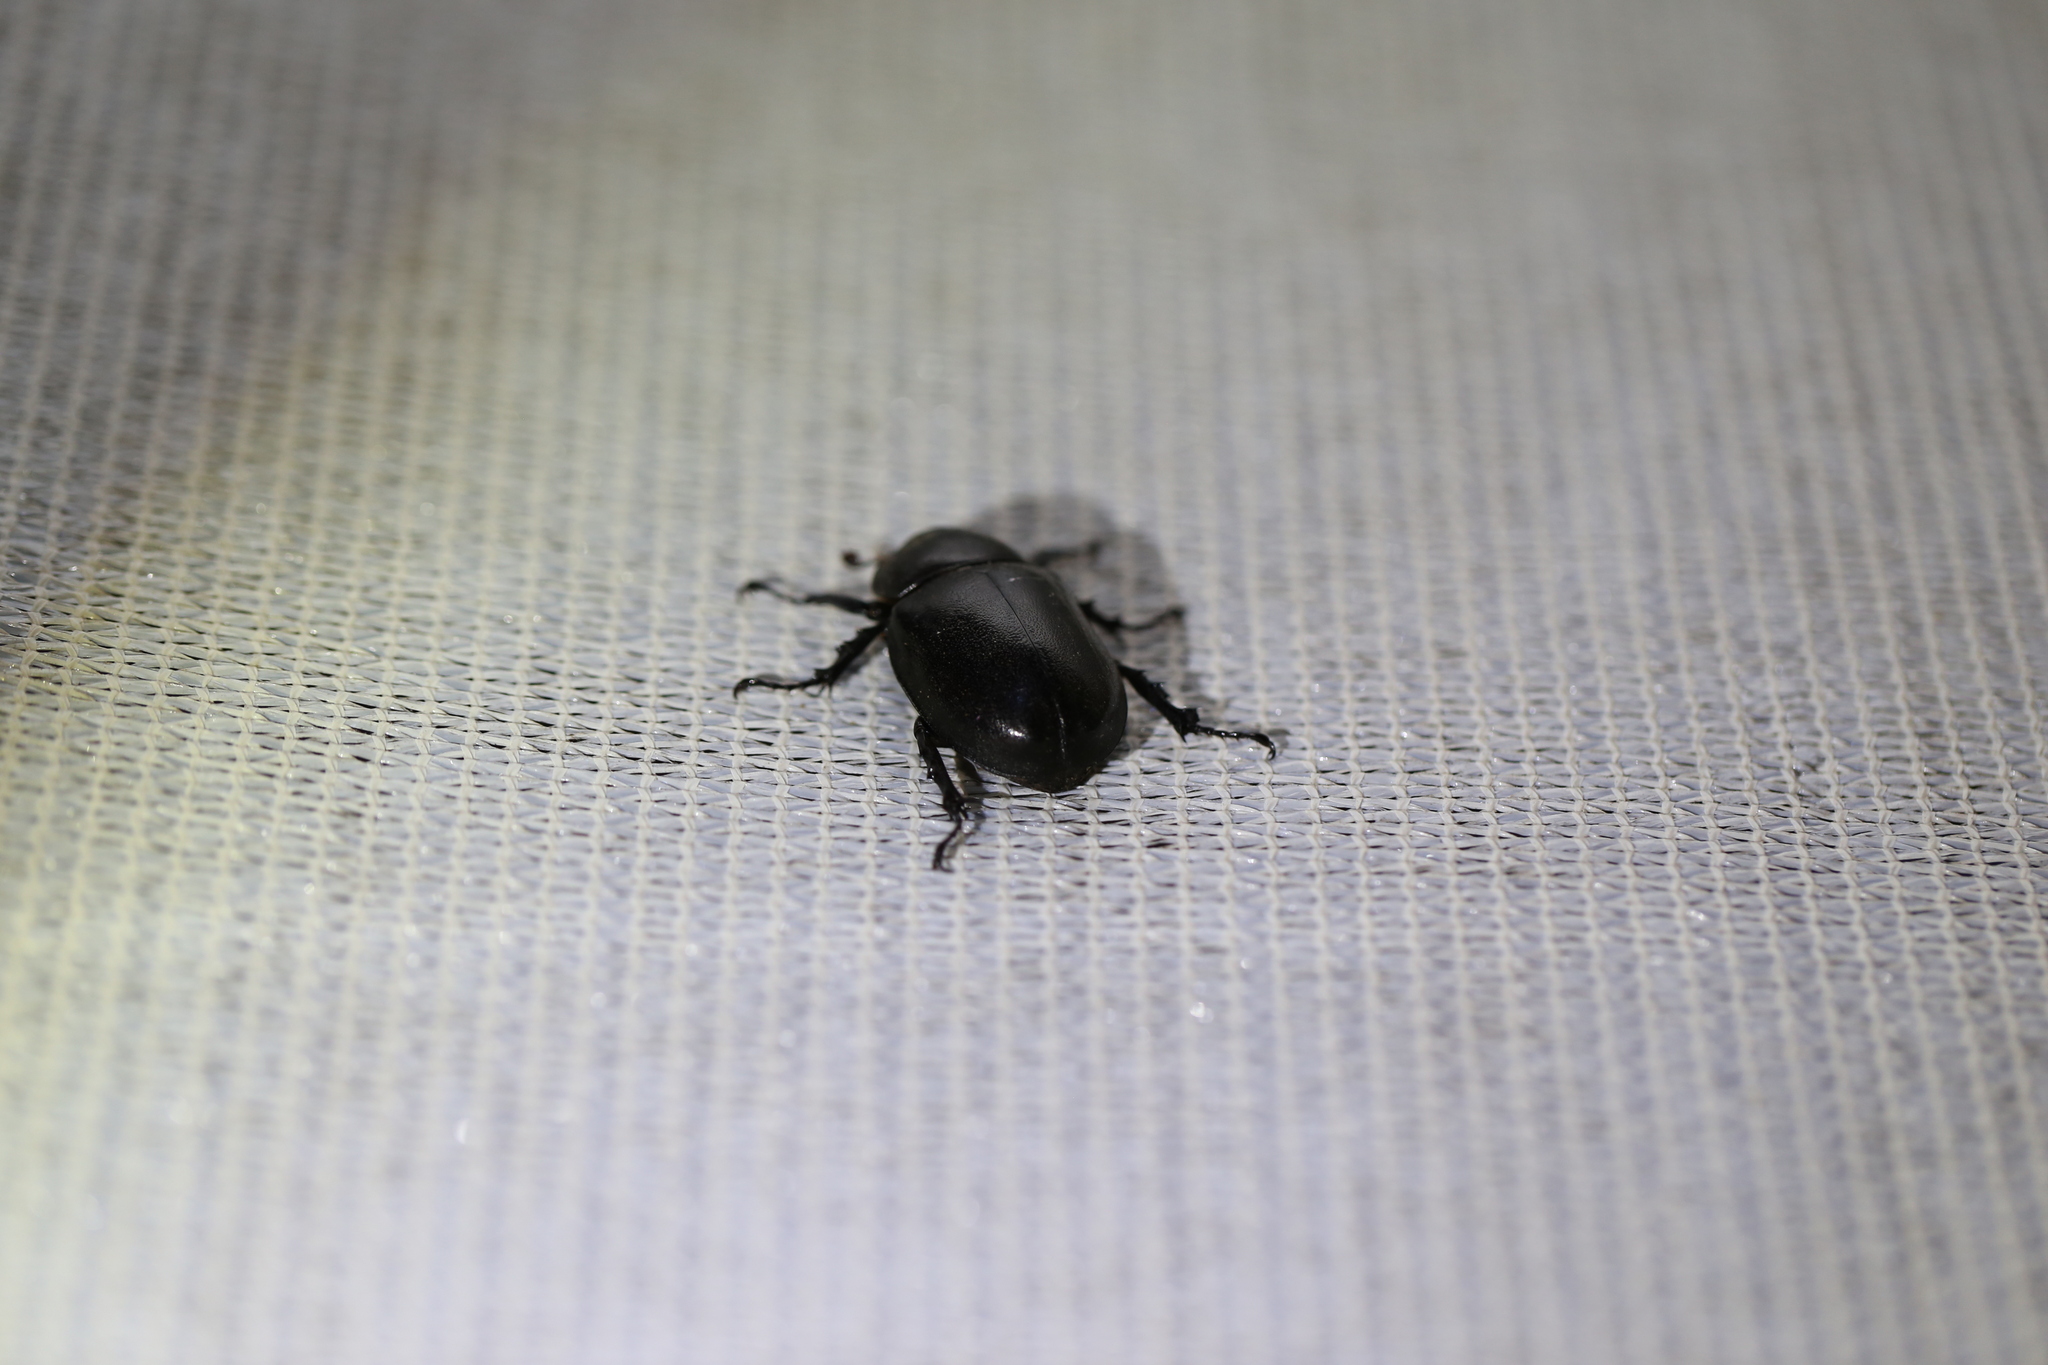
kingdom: Animalia
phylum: Arthropoda
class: Insecta
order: Coleoptera
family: Scarabaeidae
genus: Xylotrupes
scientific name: Xylotrupes australicus
